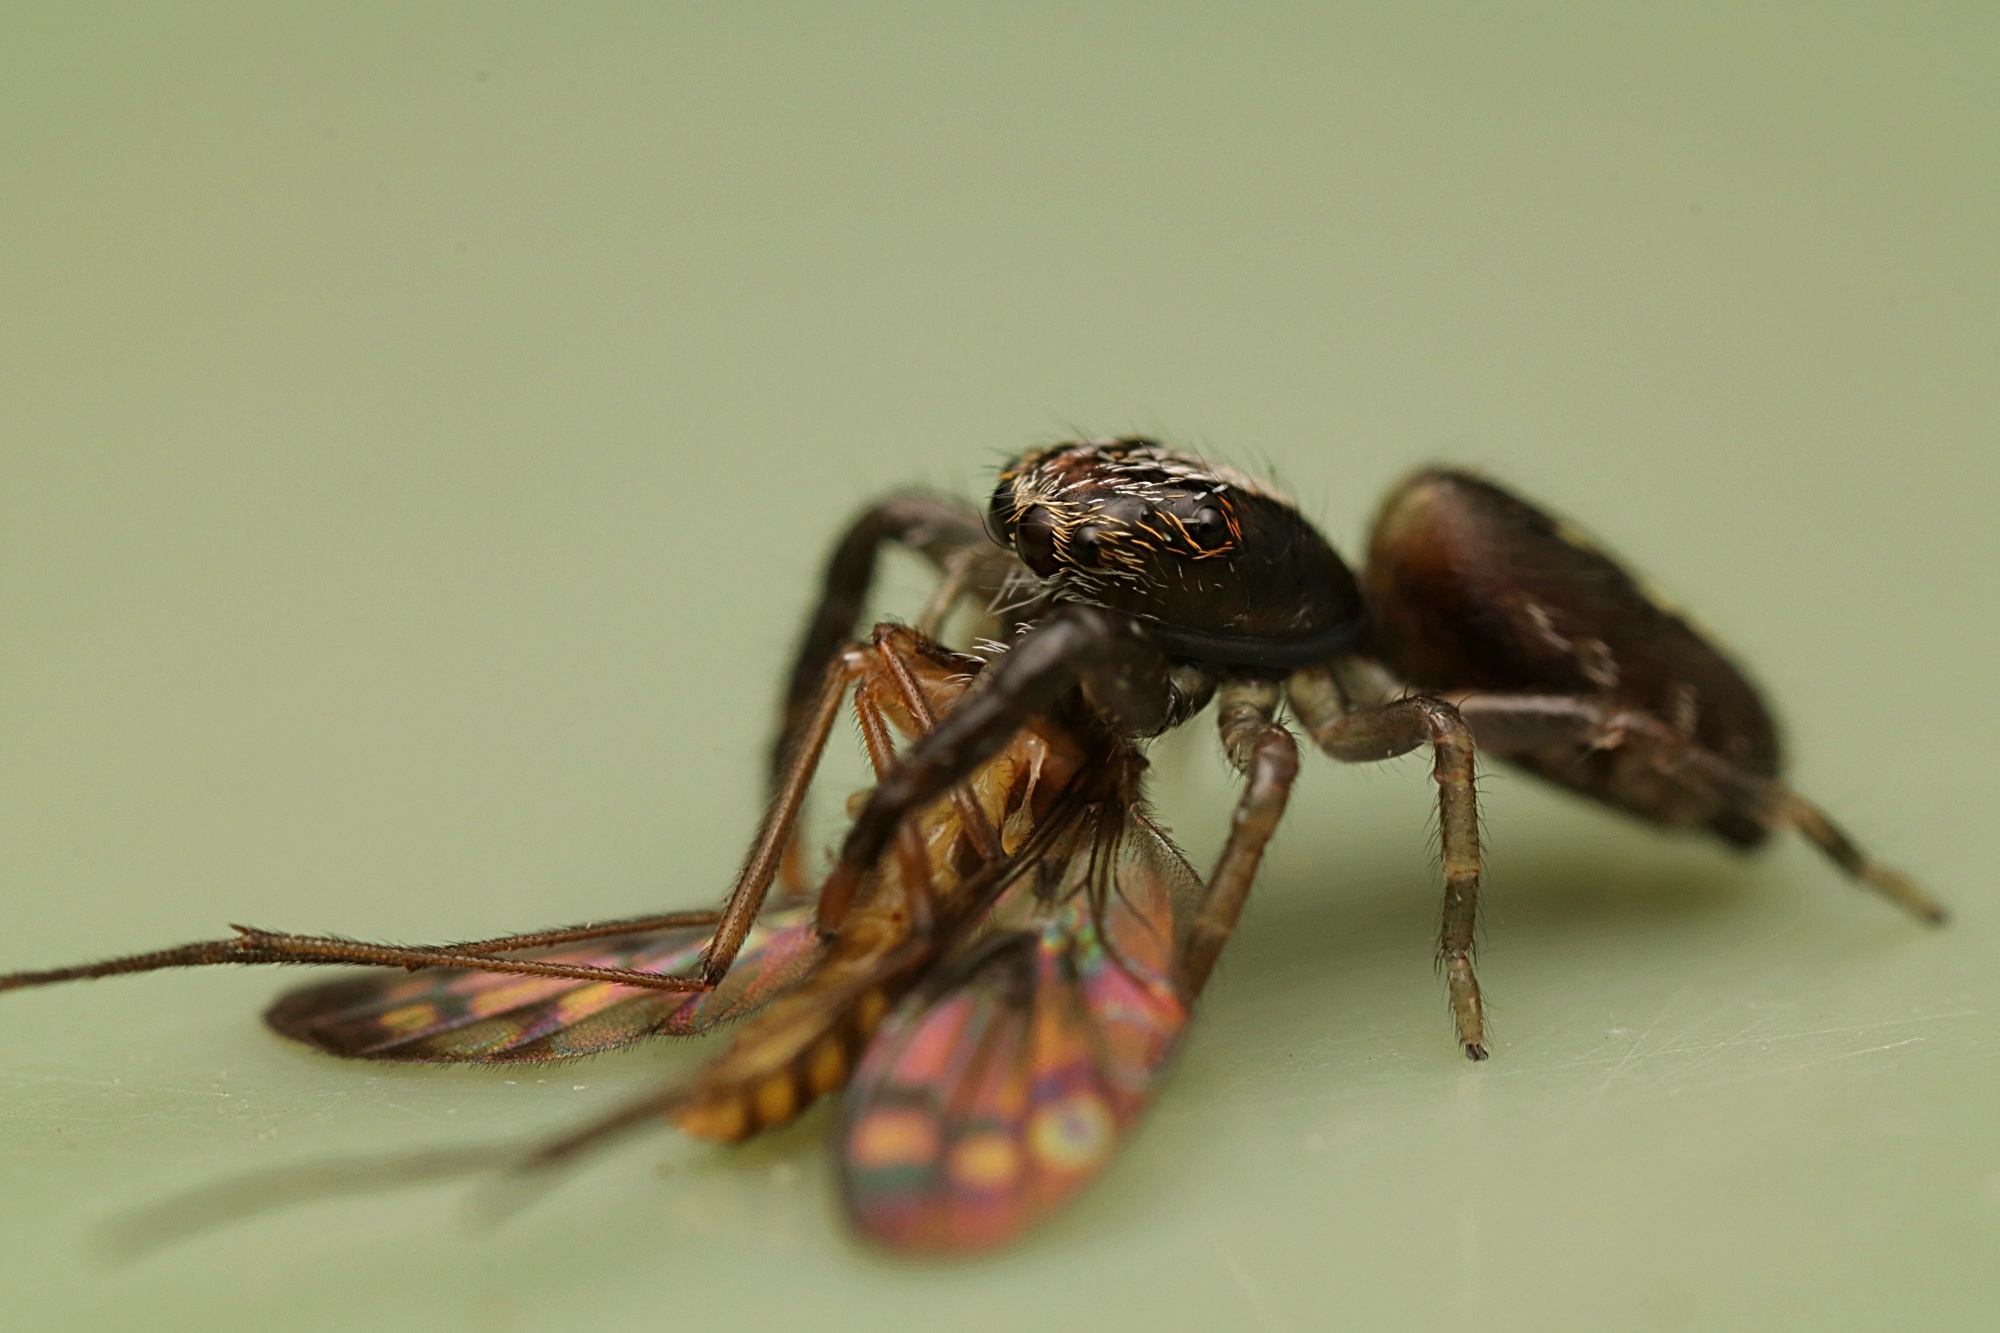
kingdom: Animalia
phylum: Arthropoda
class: Arachnida
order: Araneae
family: Salticidae
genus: Trite
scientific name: Trite planiceps
